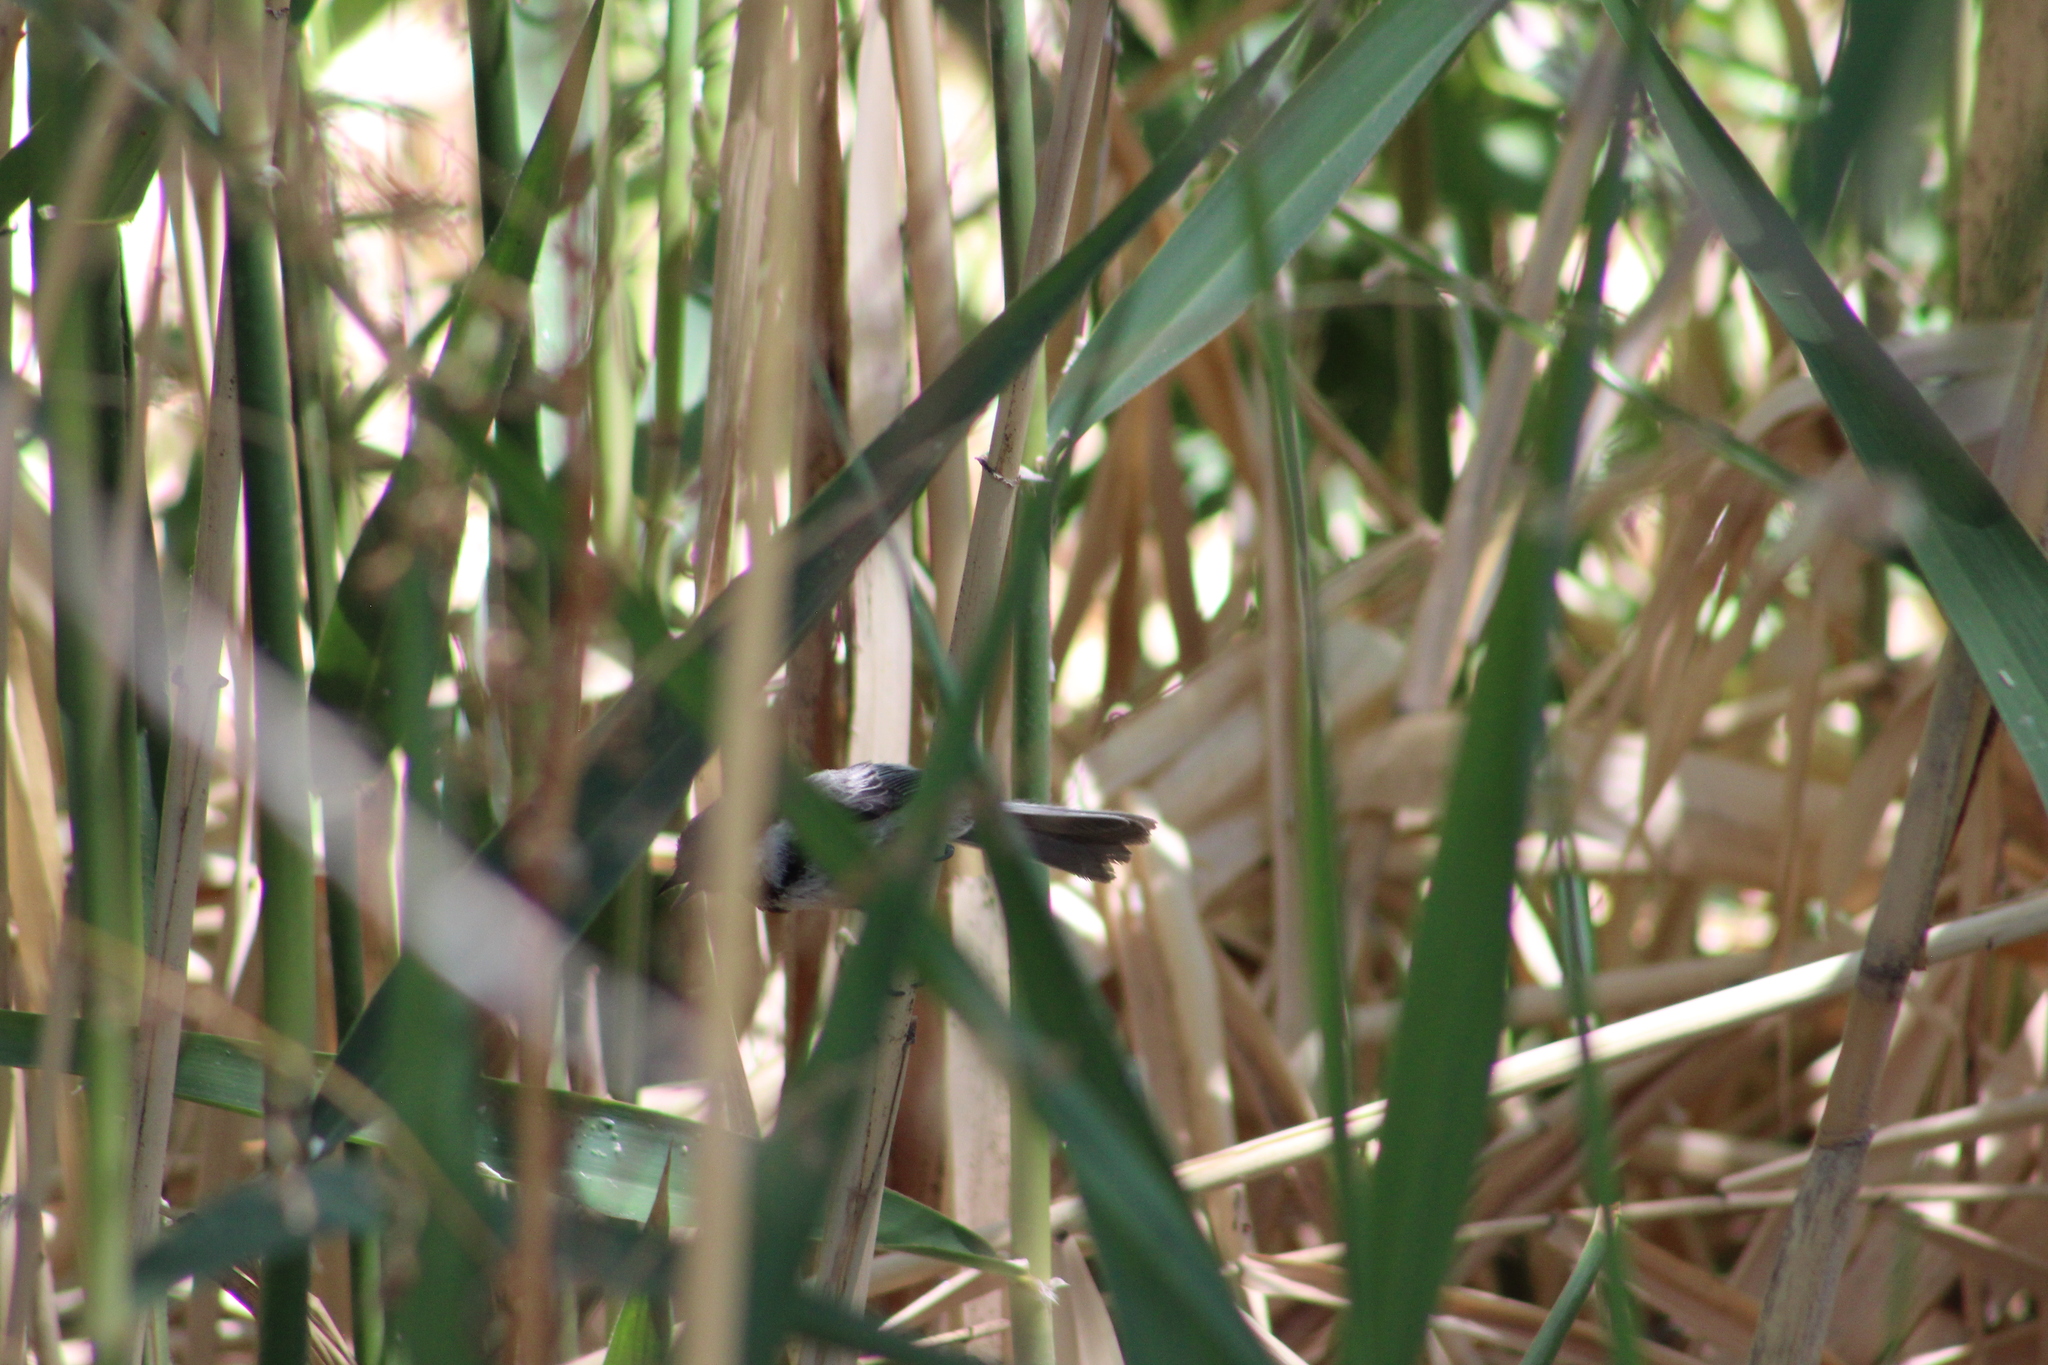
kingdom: Animalia
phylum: Chordata
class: Aves
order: Passeriformes
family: Paridae
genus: Poecile
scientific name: Poecile atricapillus
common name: Black-capped chickadee
